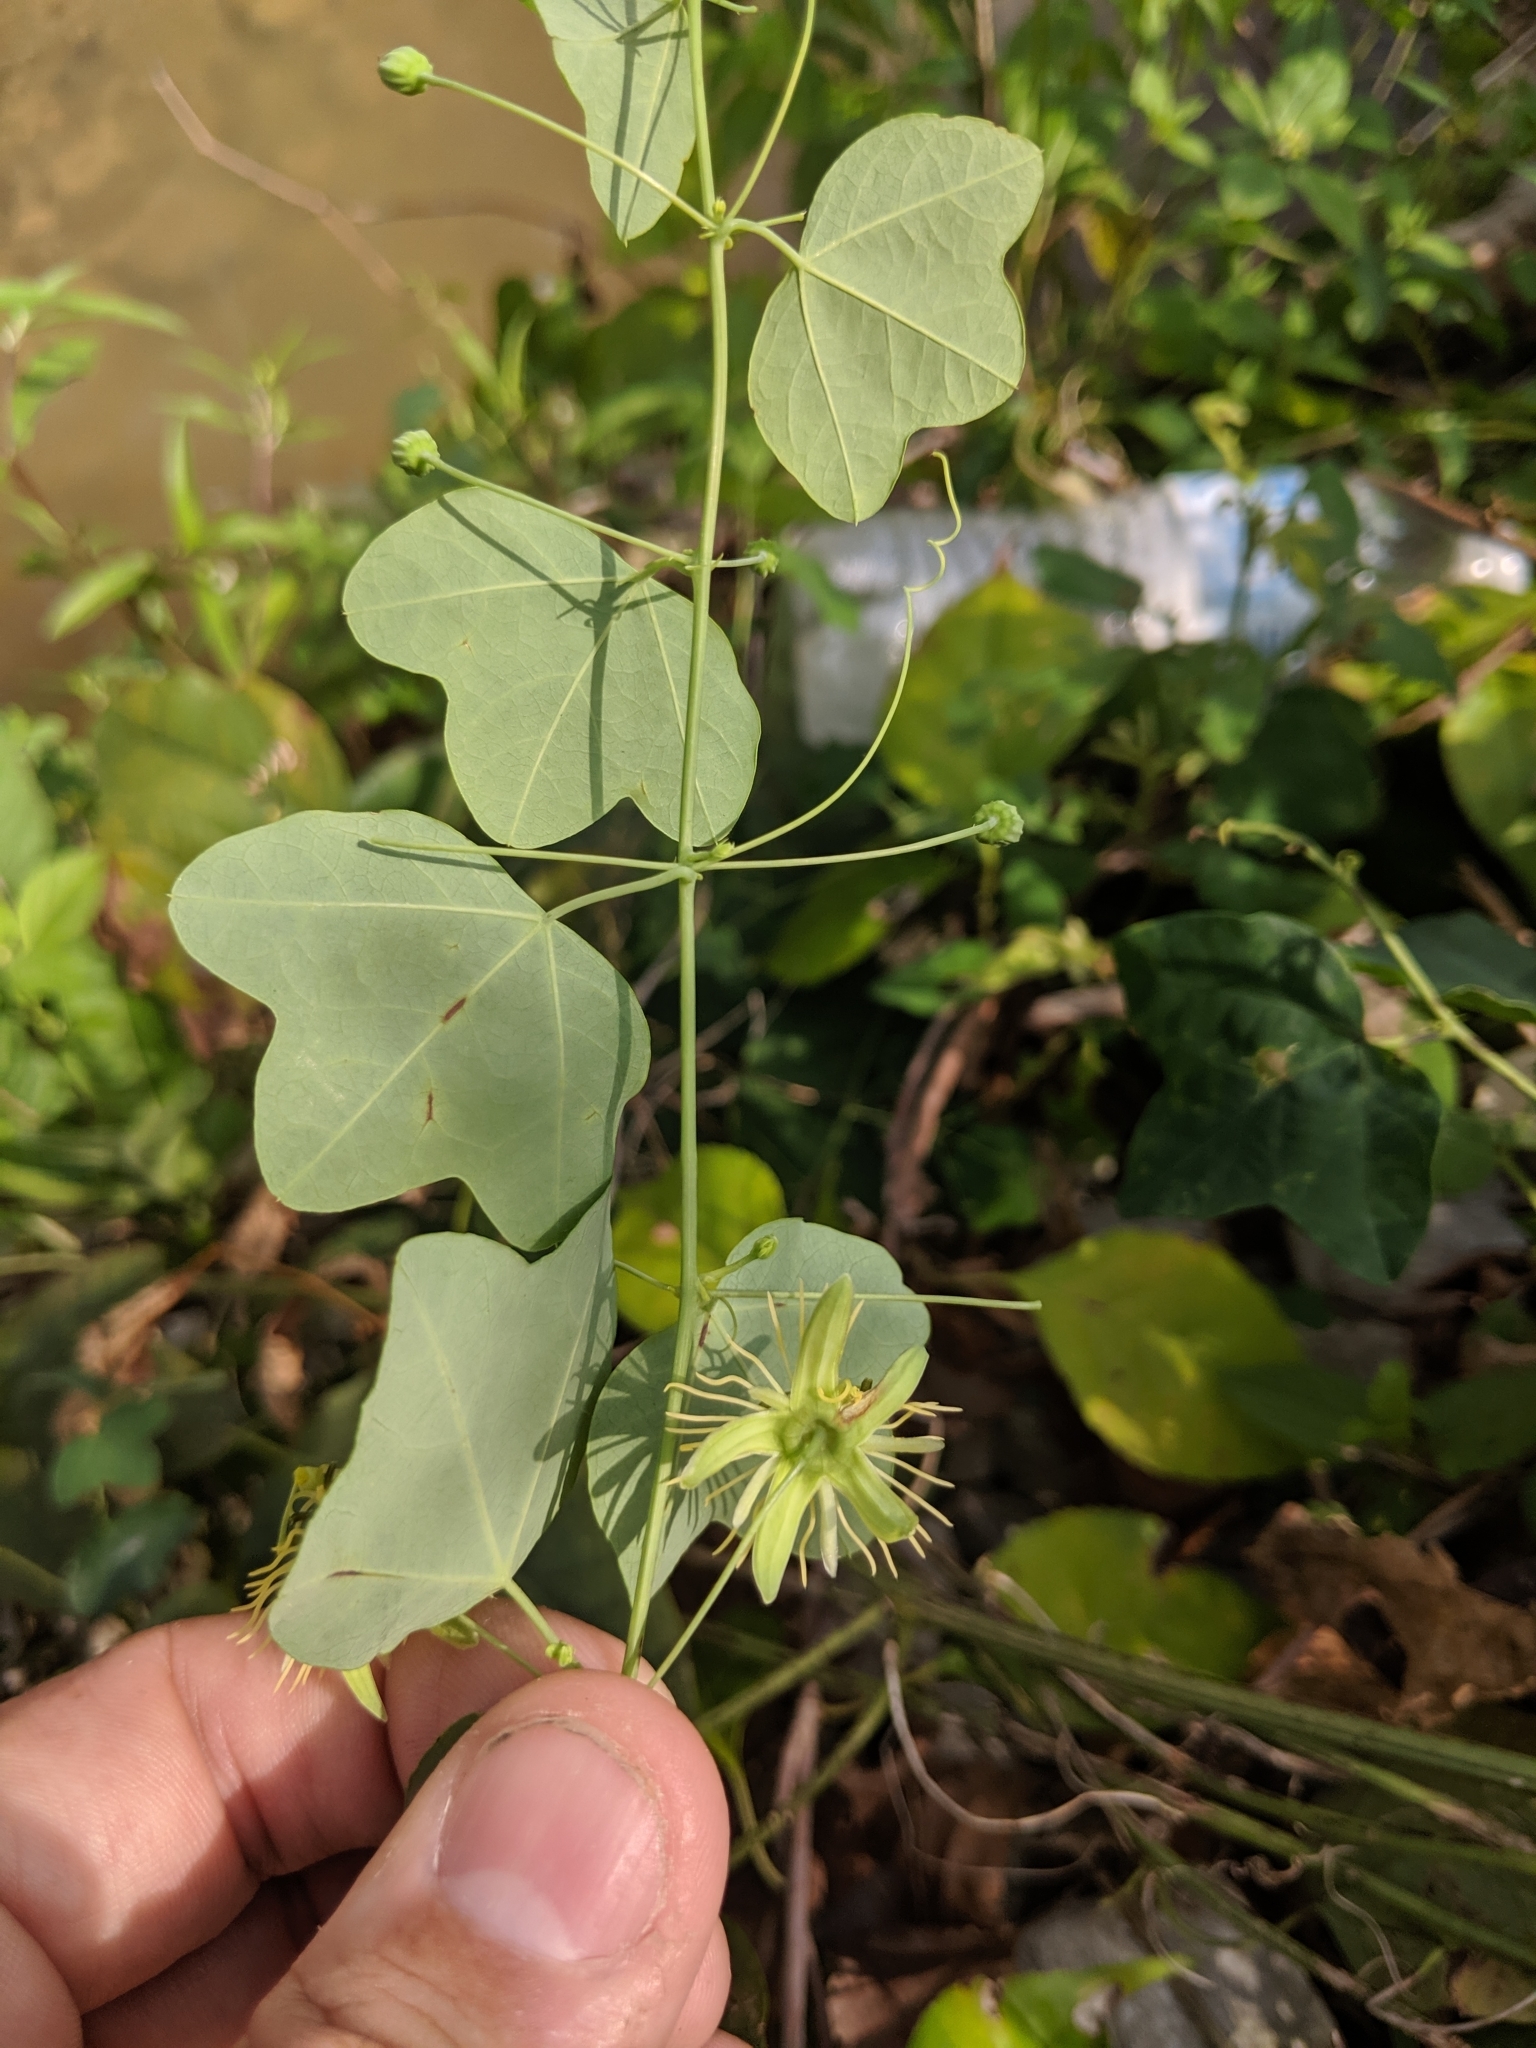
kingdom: Plantae
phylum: Tracheophyta
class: Magnoliopsida
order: Malpighiales
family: Passifloraceae
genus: Passiflora
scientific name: Passiflora lutea
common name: Yellow passionflower
